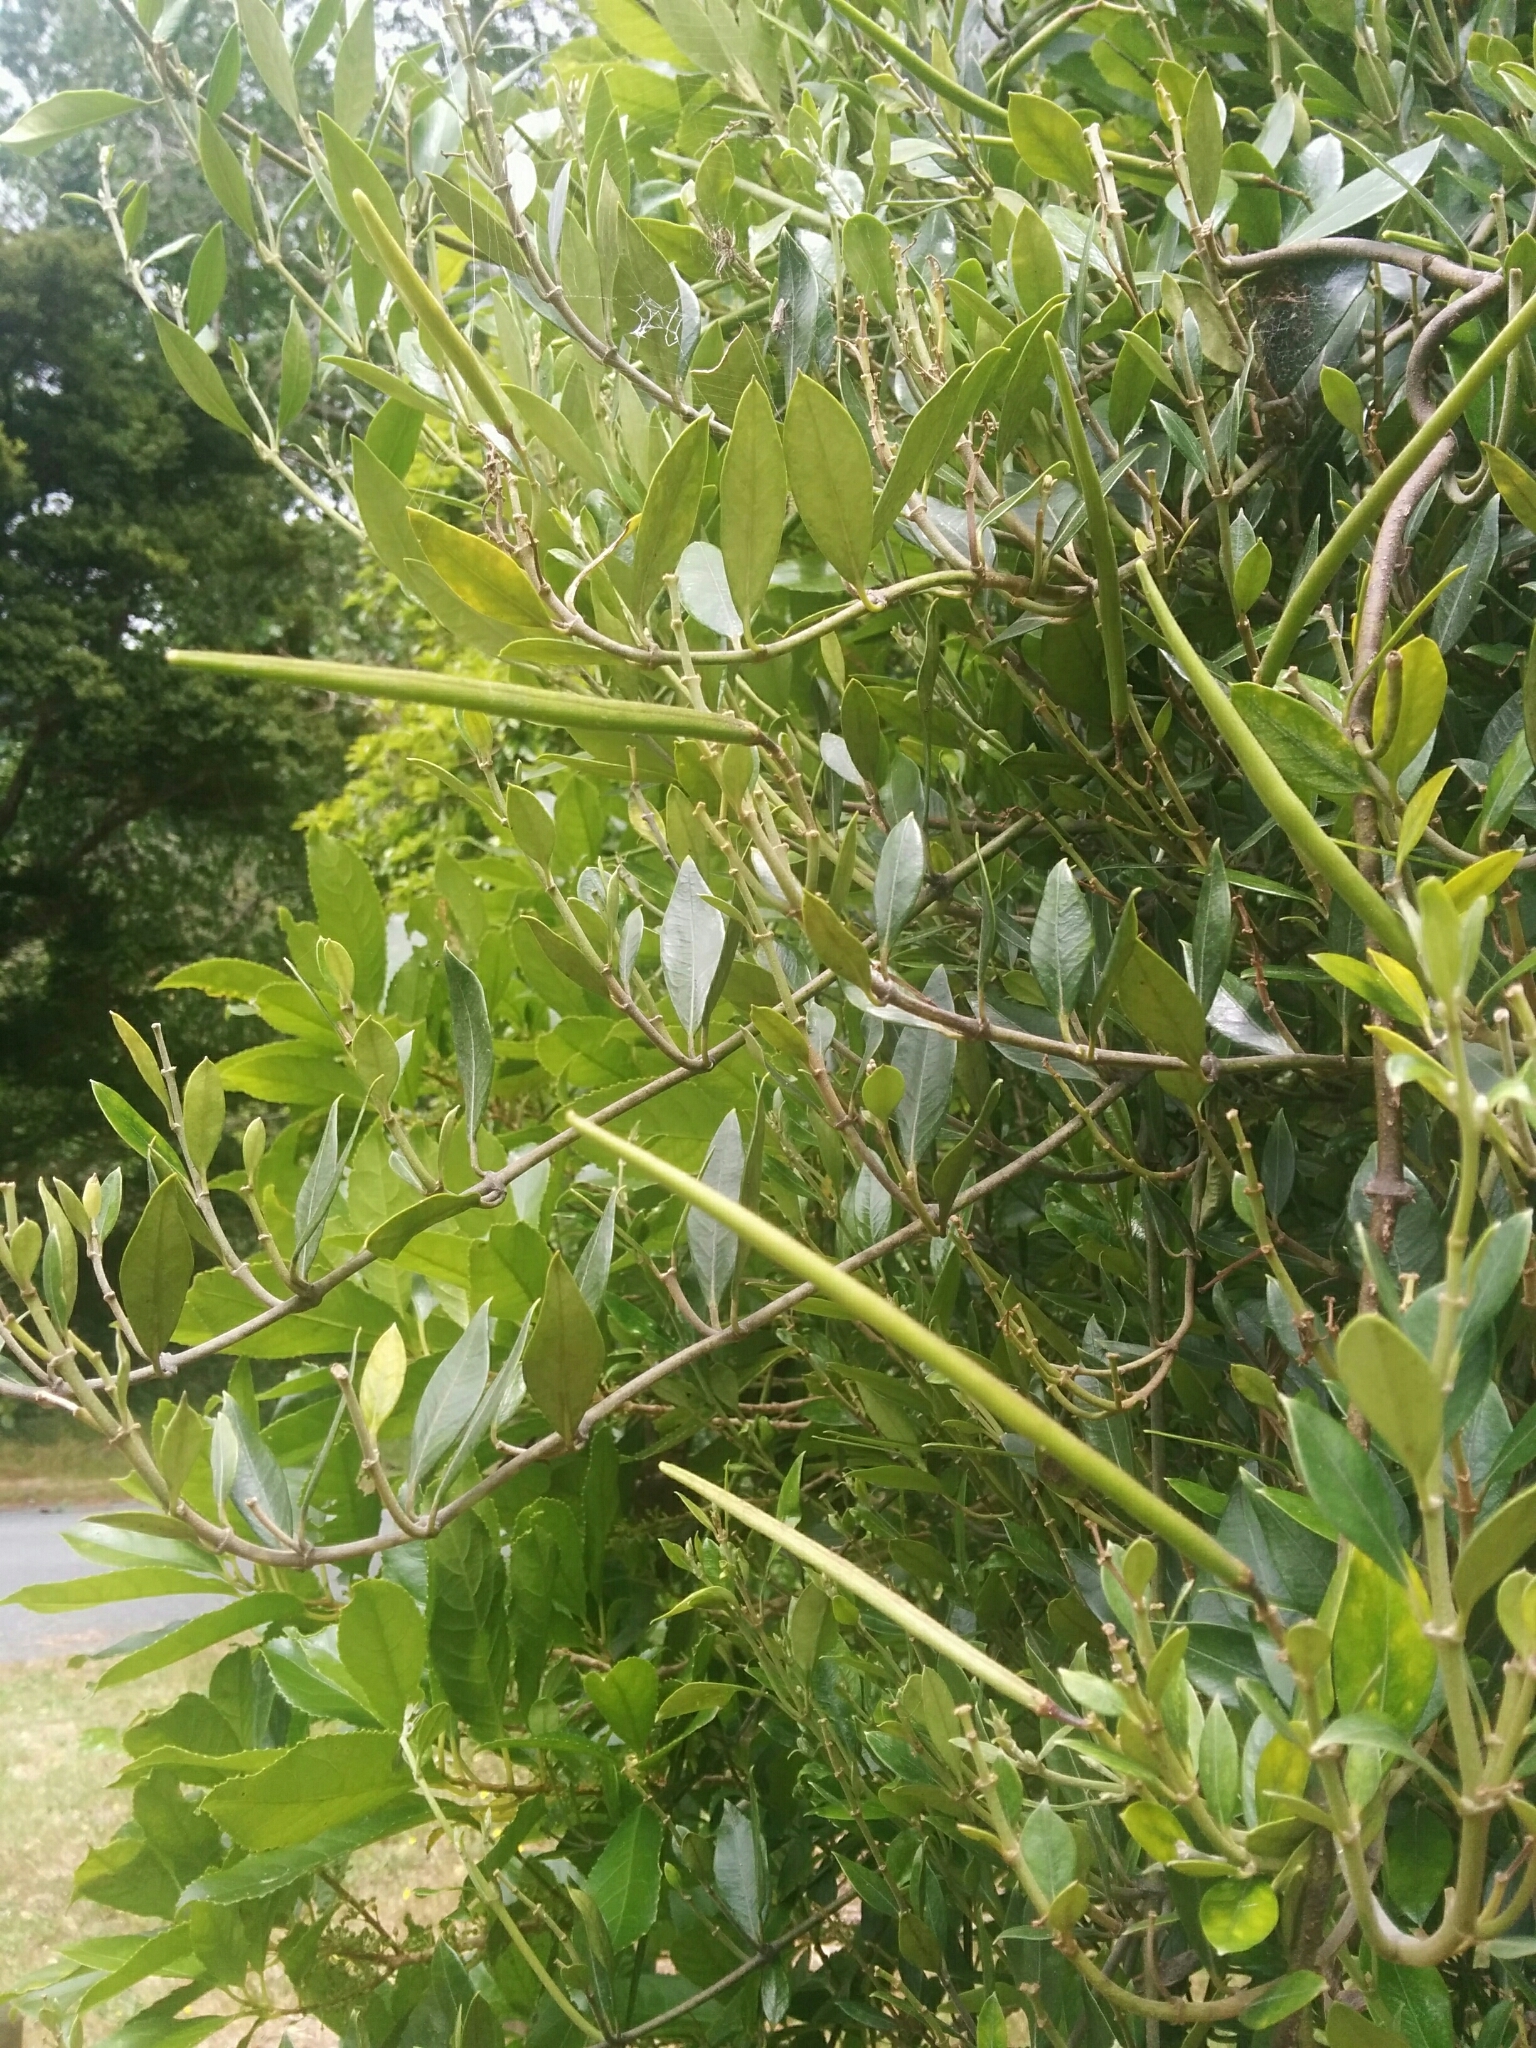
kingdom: Plantae
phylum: Tracheophyta
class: Magnoliopsida
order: Gentianales
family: Apocynaceae
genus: Parsonsia
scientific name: Parsonsia heterophylla
